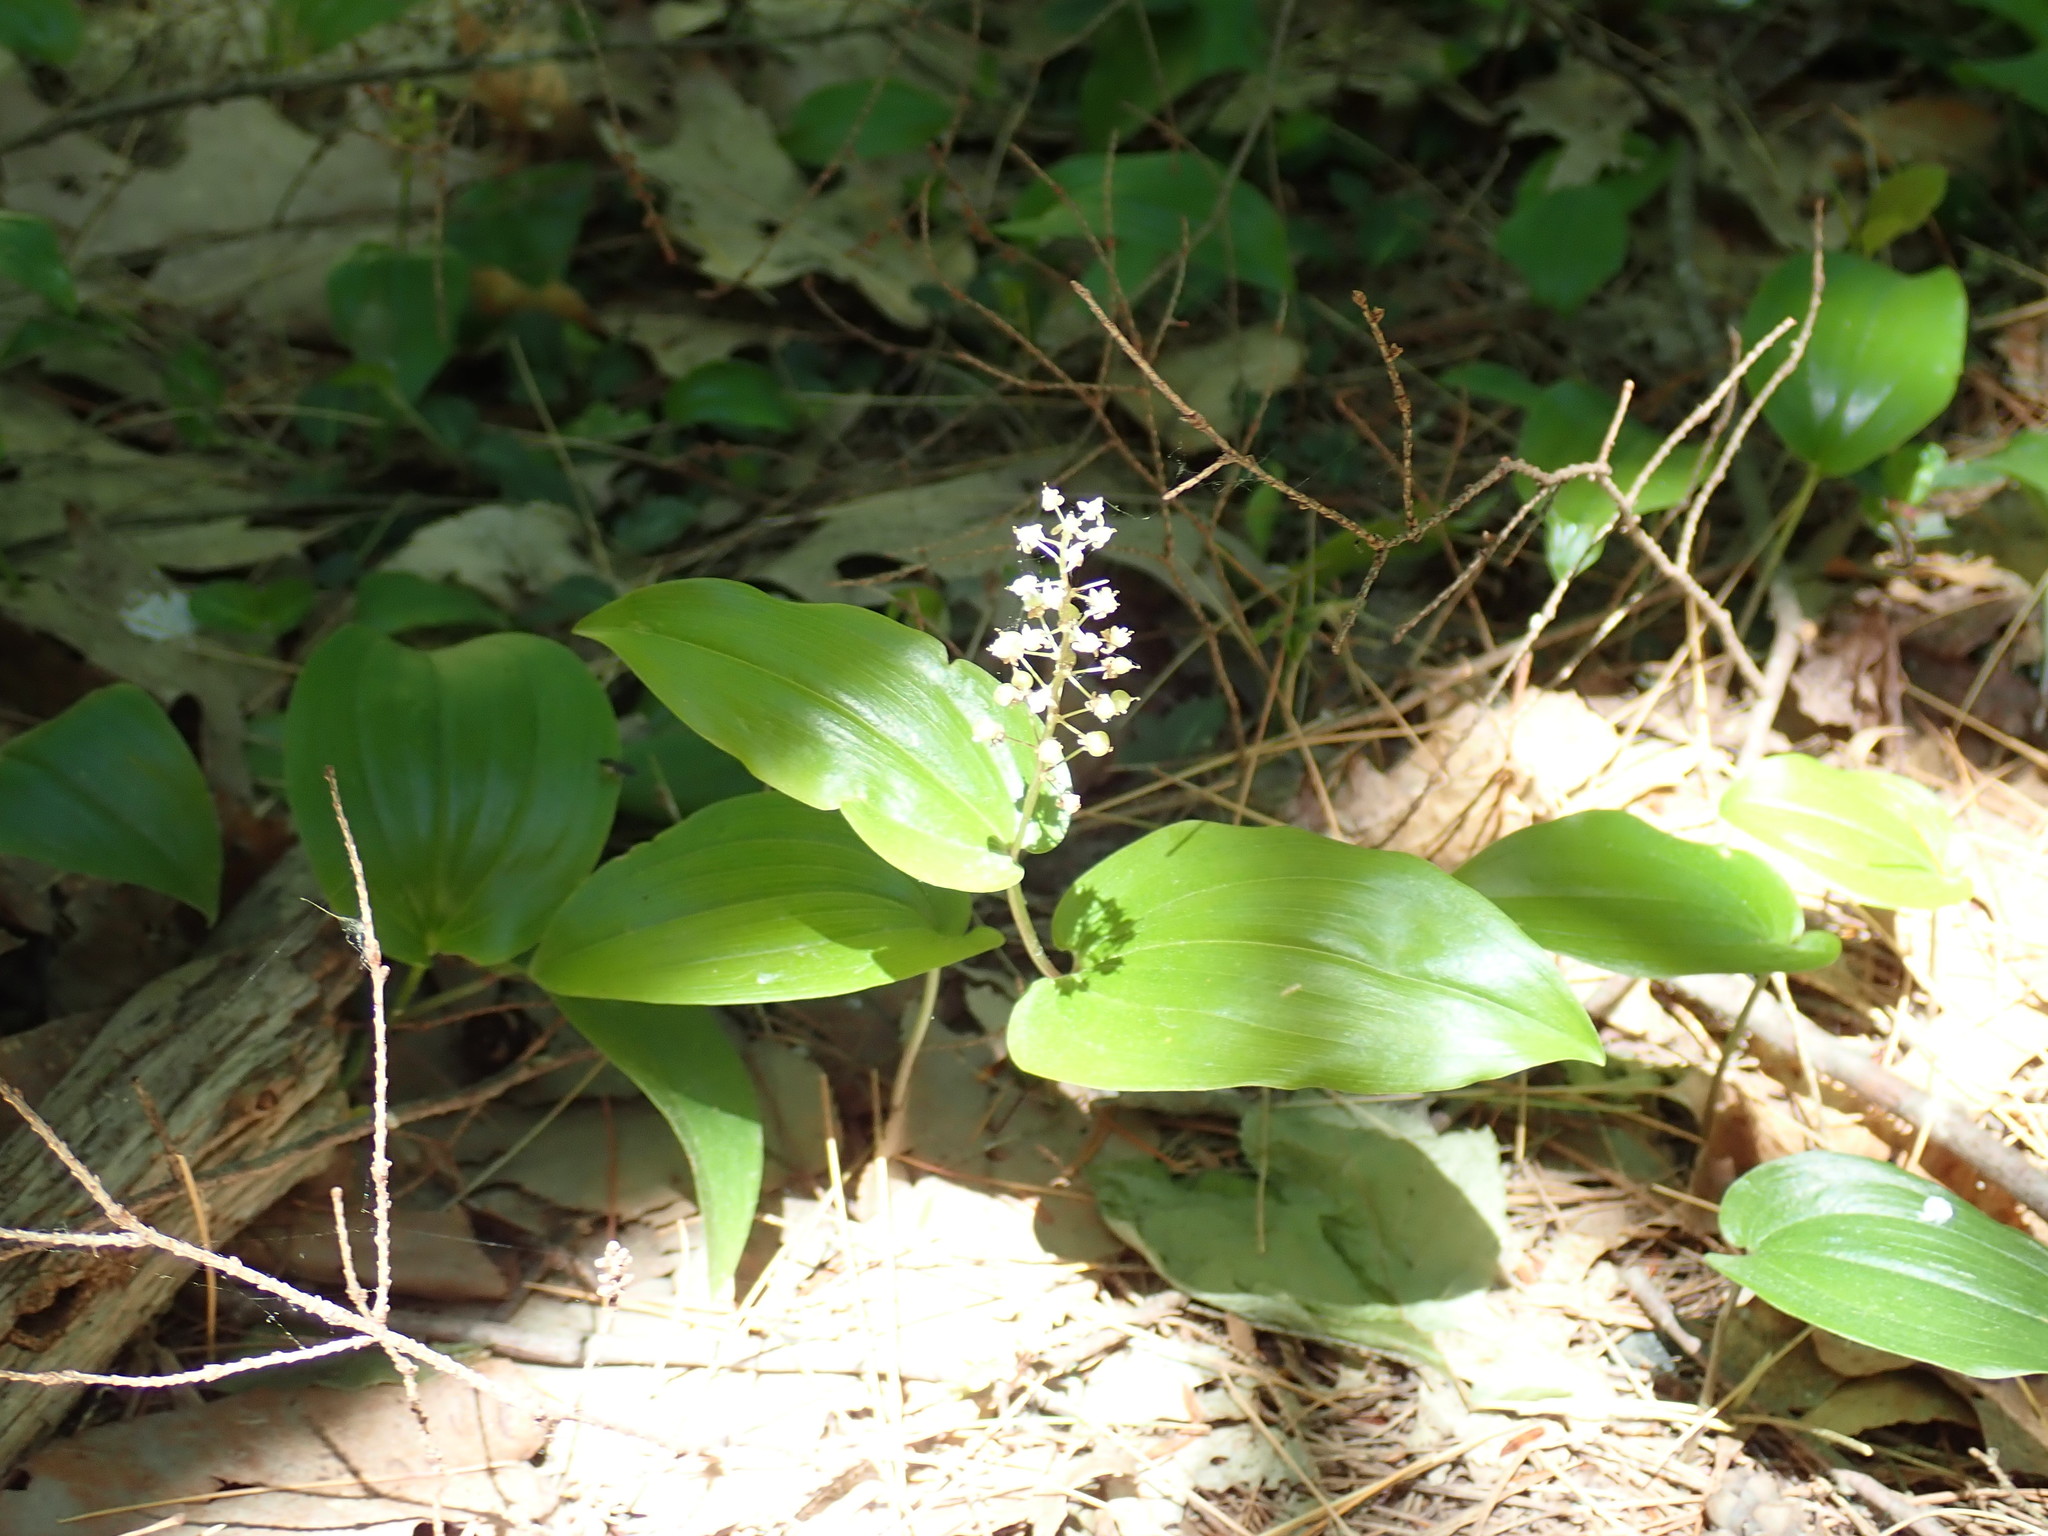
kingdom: Plantae
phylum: Tracheophyta
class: Liliopsida
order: Asparagales
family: Asparagaceae
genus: Maianthemum
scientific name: Maianthemum canadense
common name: False lily-of-the-valley
